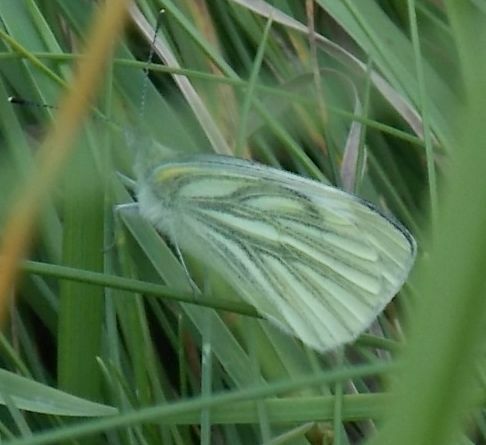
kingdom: Animalia
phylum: Arthropoda
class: Insecta
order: Lepidoptera
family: Pieridae
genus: Pieris
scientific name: Pieris napi
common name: Green-veined white
